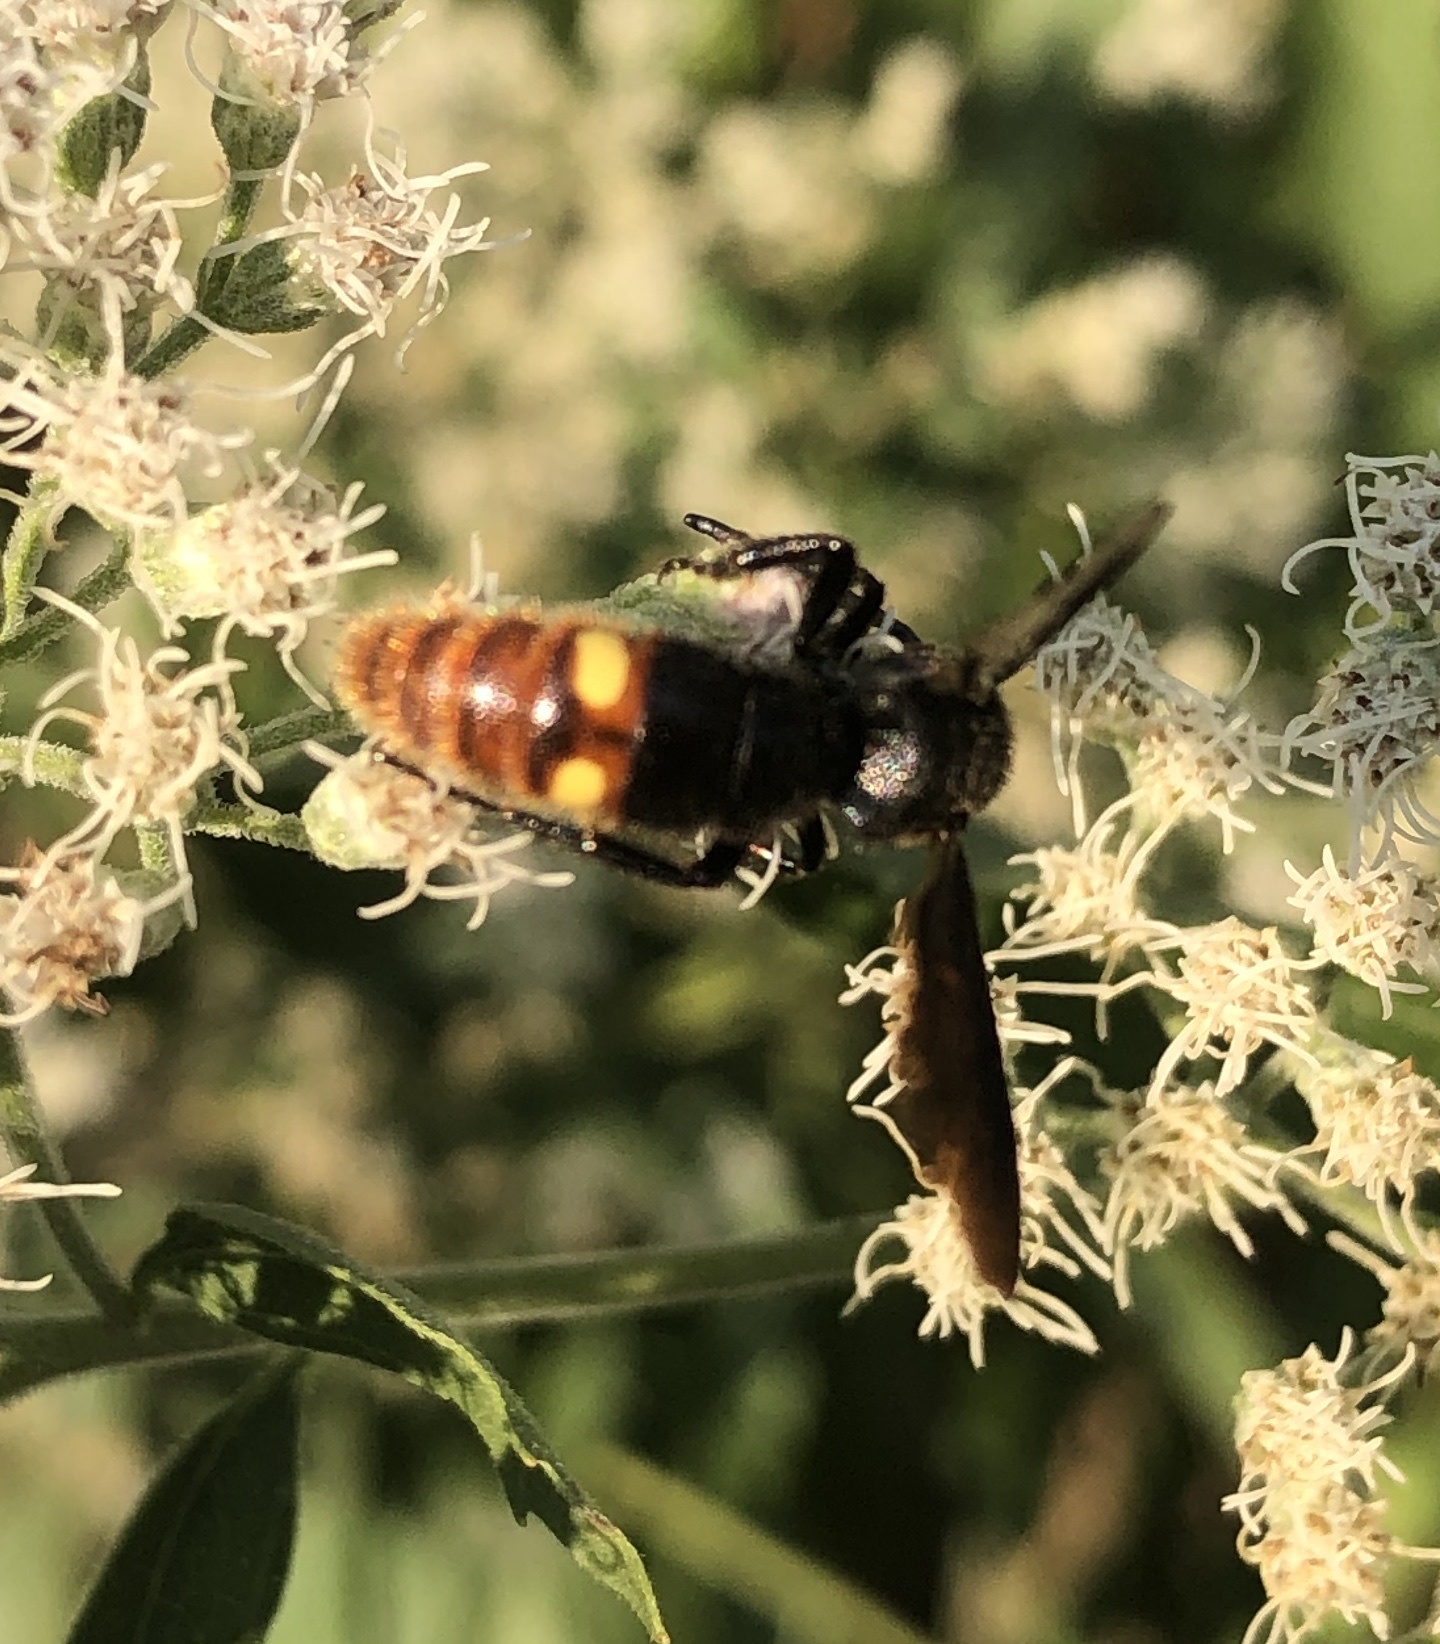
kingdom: Animalia
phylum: Arthropoda
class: Insecta
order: Hymenoptera
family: Scoliidae
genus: Scolia
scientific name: Scolia dubia
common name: Blue-winged scoliid wasp
